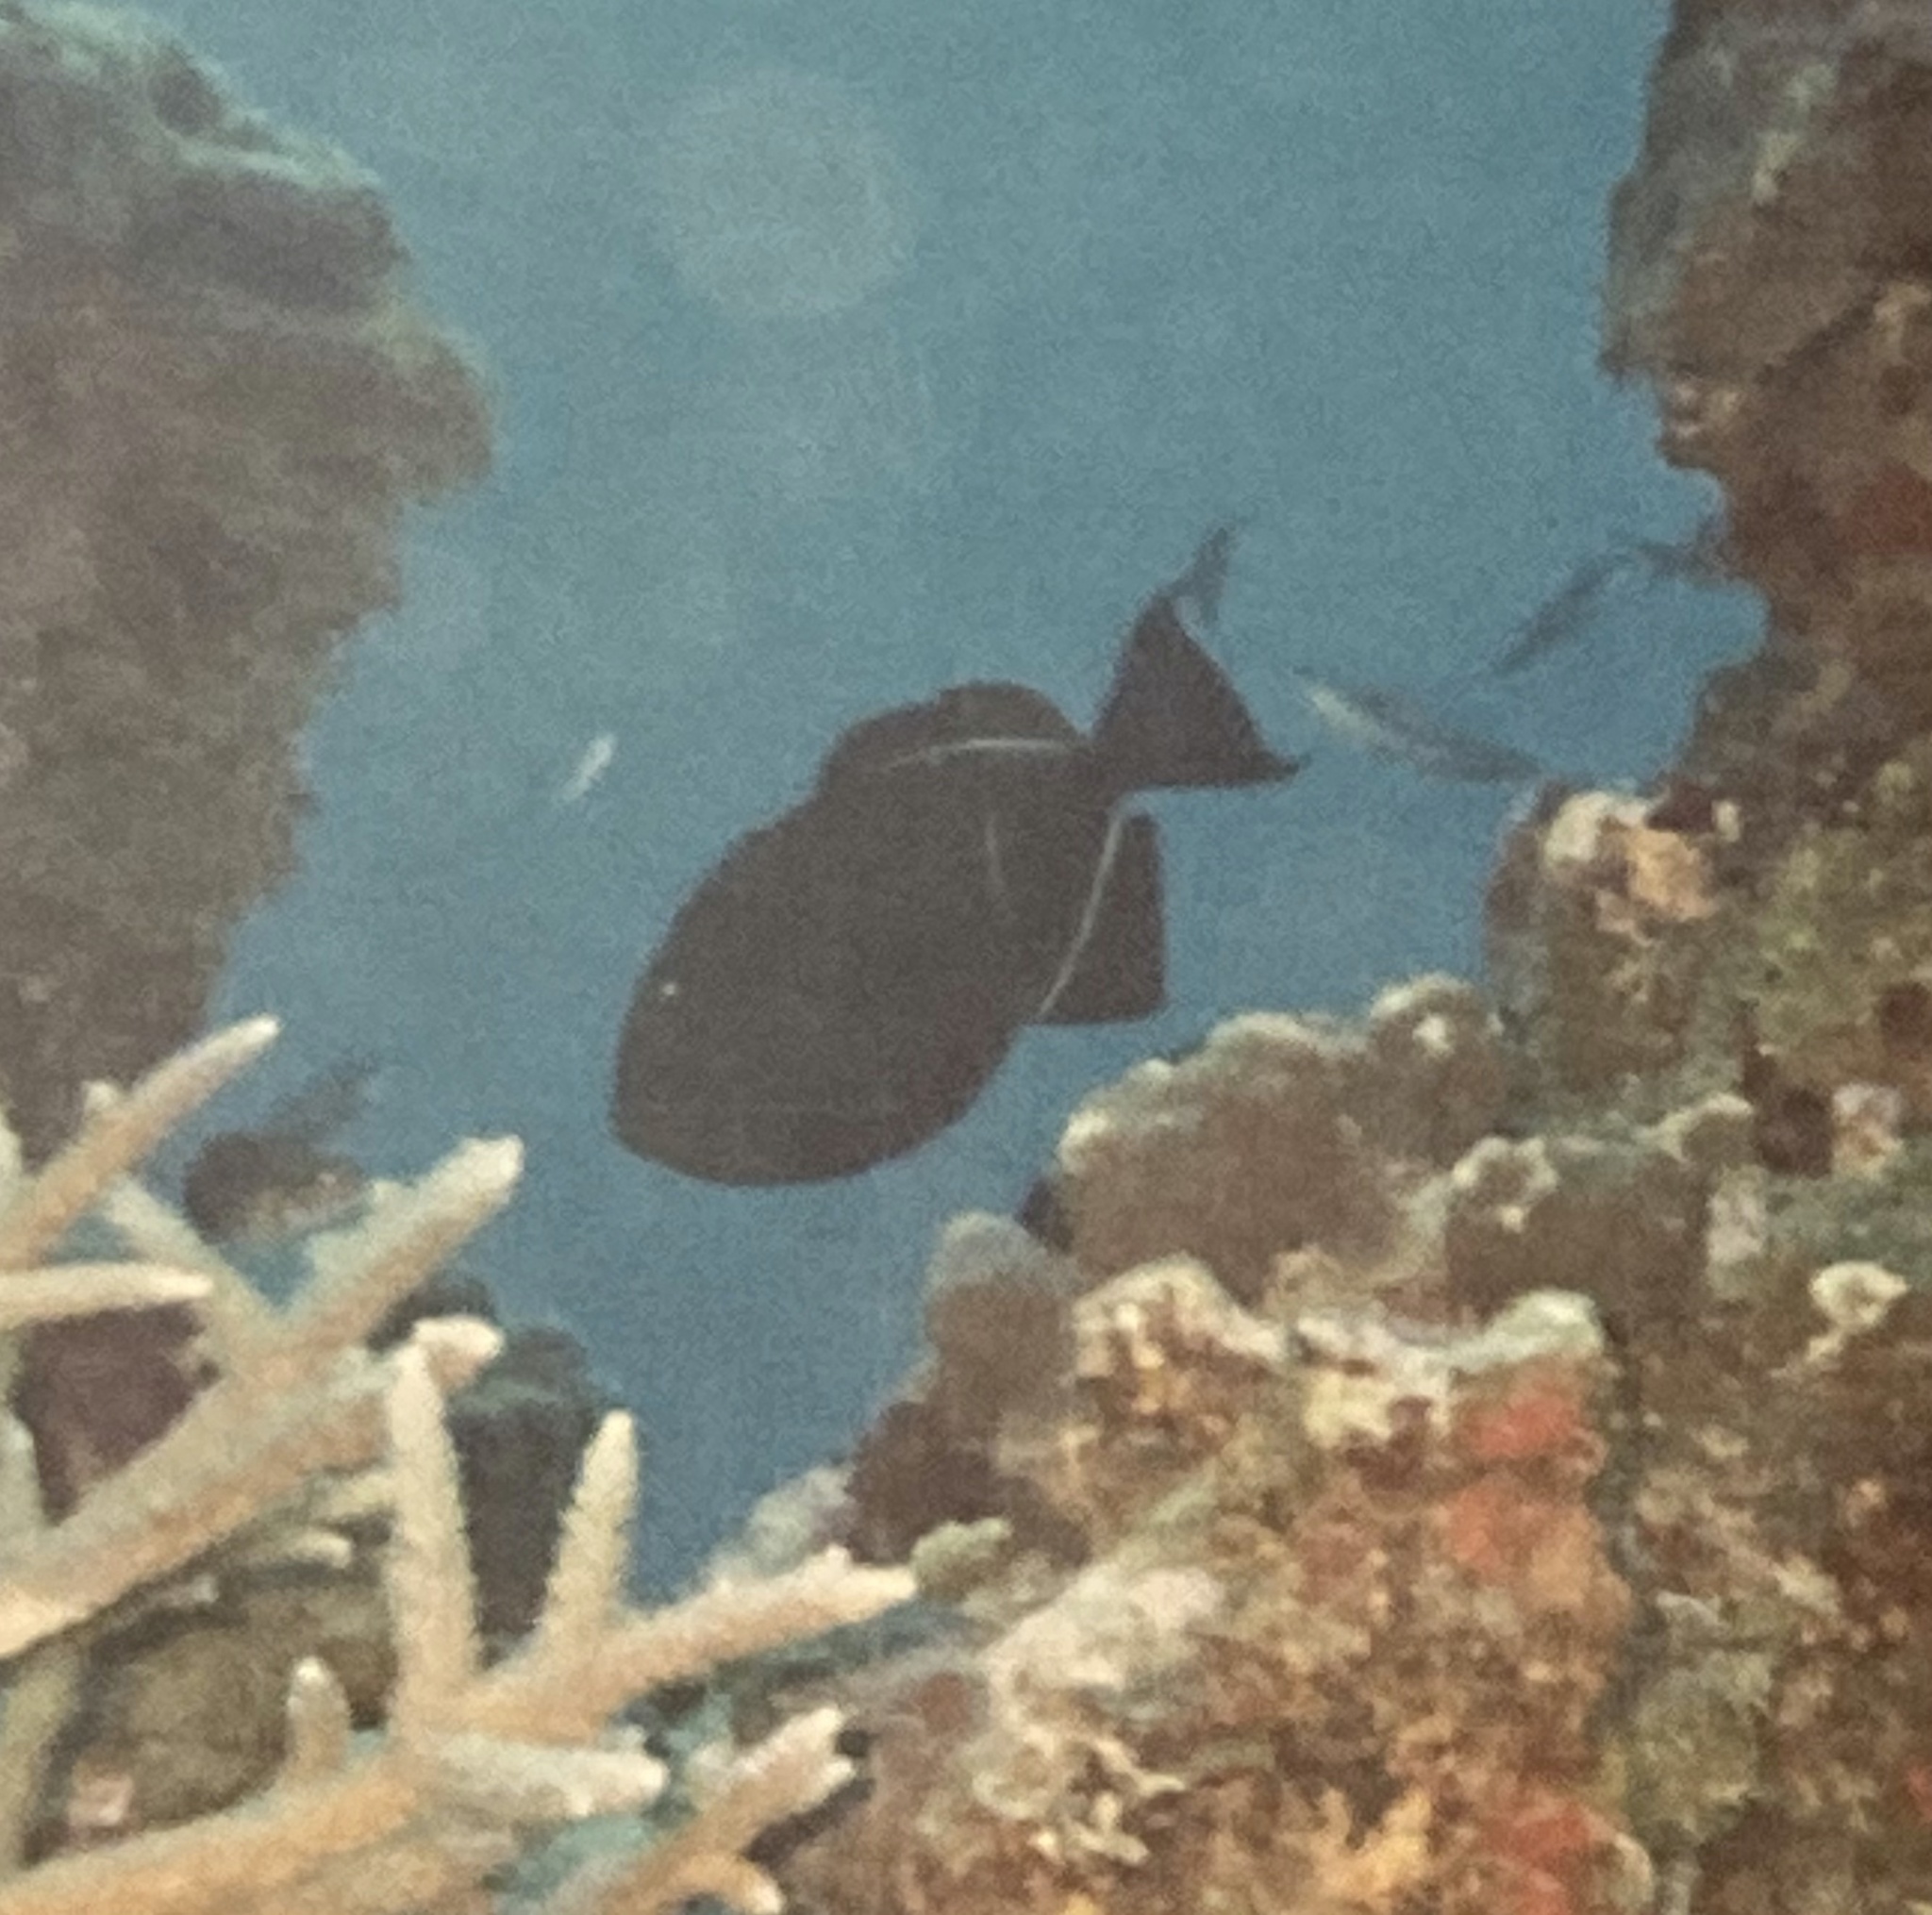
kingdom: Animalia
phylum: Chordata
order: Tetraodontiformes
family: Balistidae
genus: Melichthys
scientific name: Melichthys niger
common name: Black durgon
